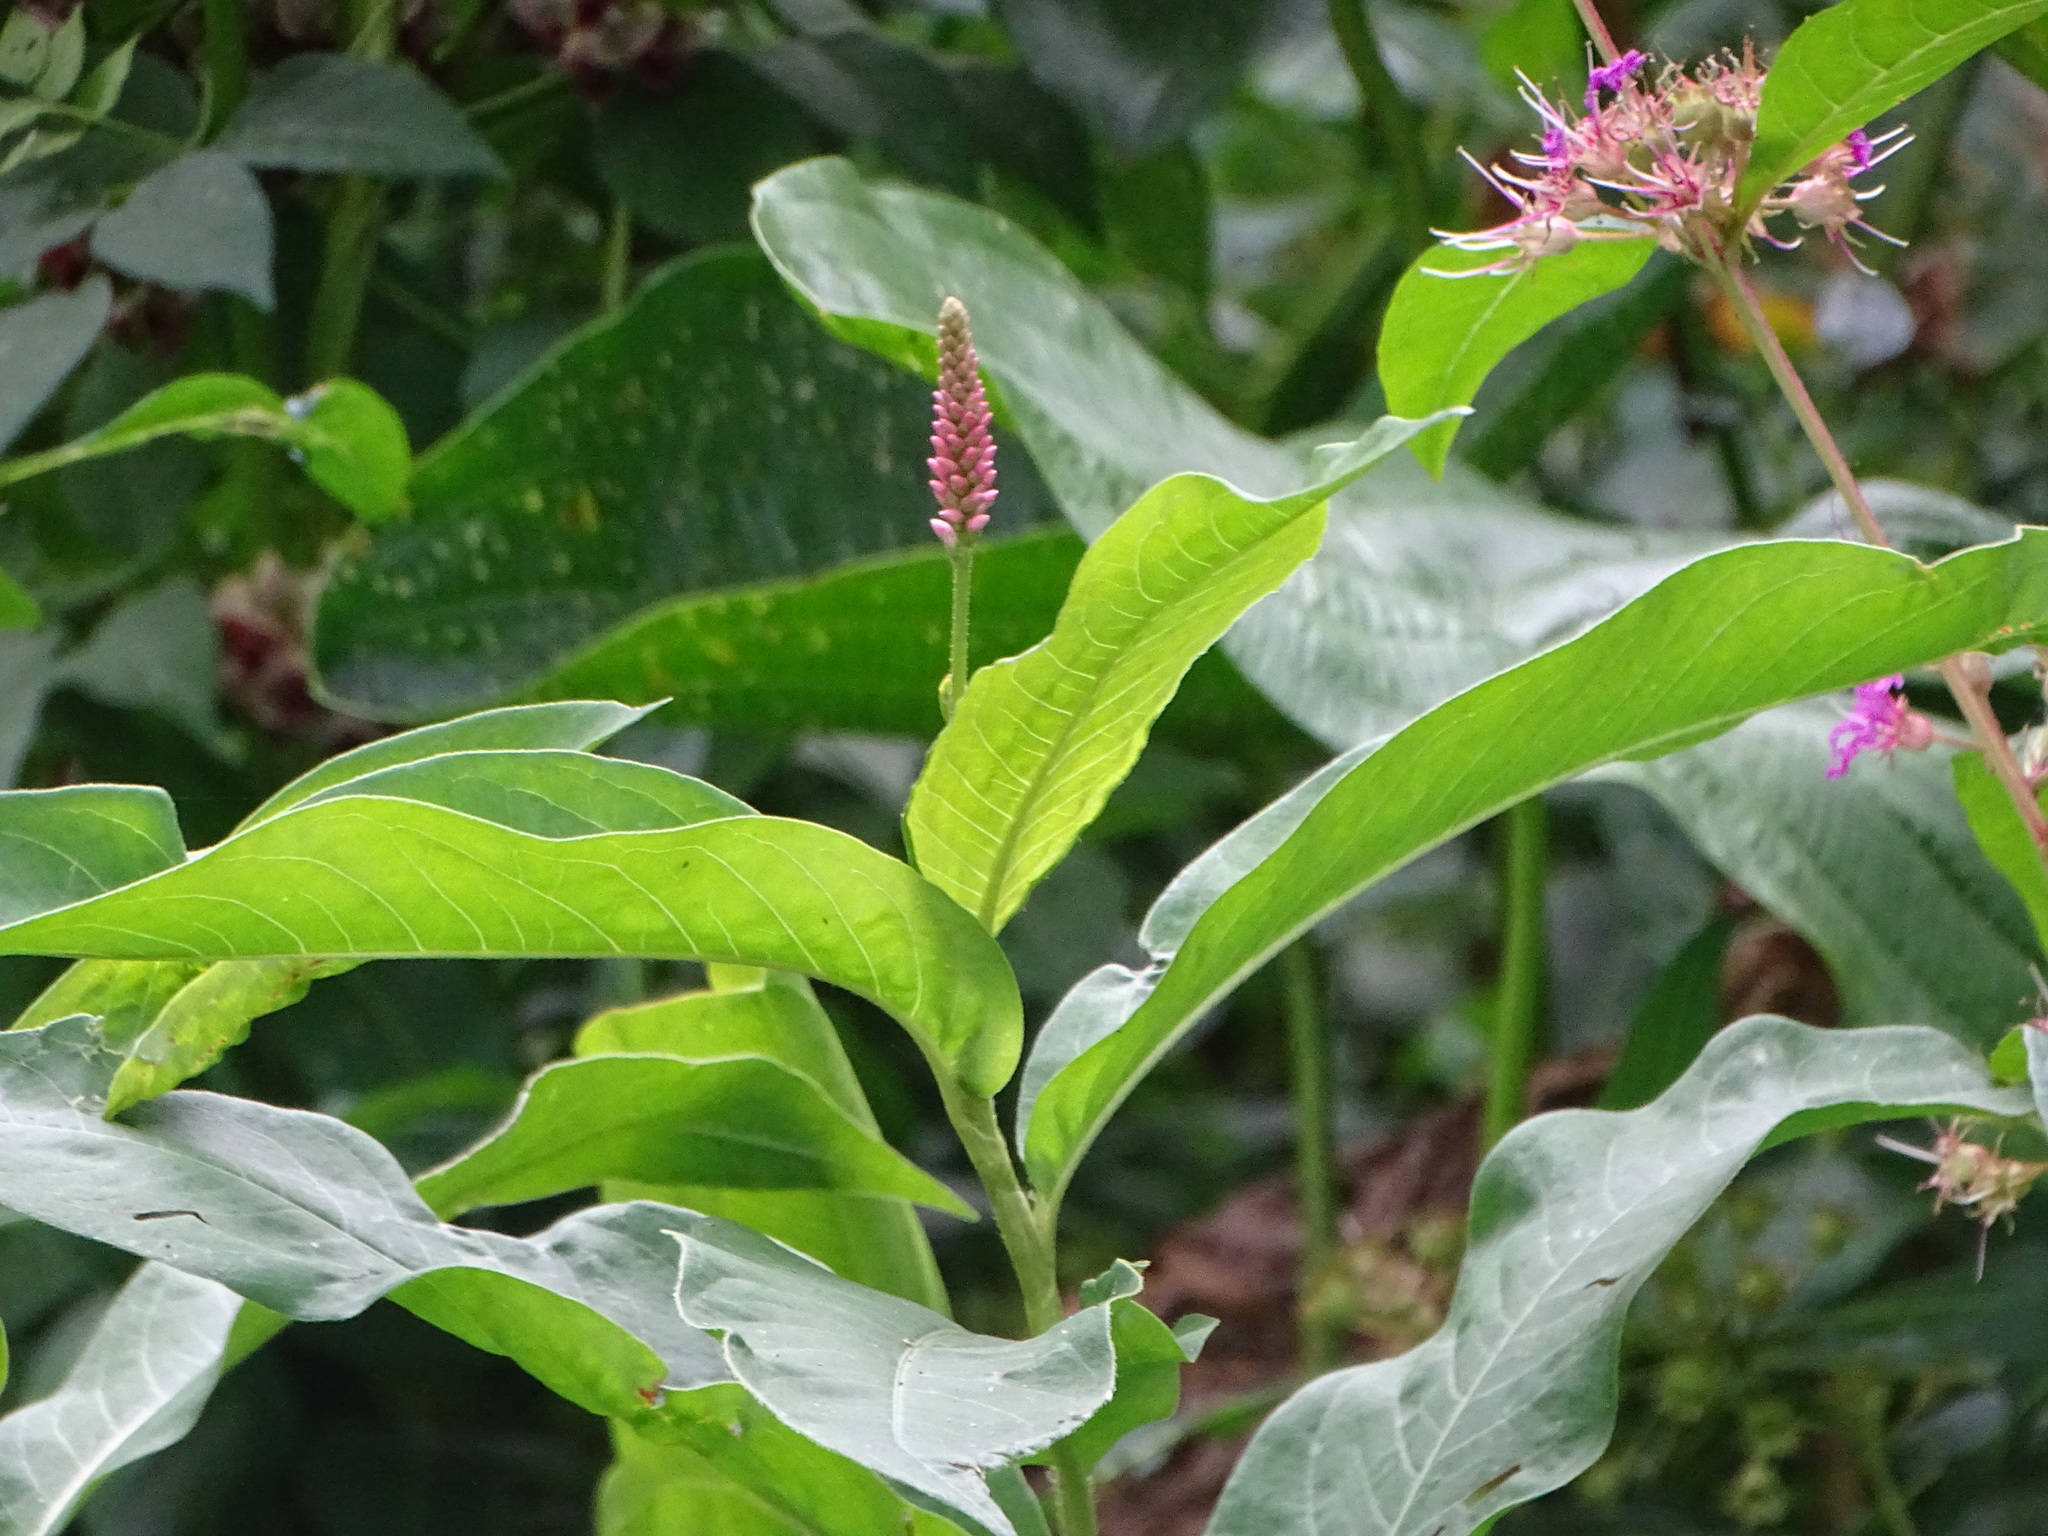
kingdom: Plantae
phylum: Tracheophyta
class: Magnoliopsida
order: Caryophyllales
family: Polygonaceae
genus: Persicaria
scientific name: Persicaria amphibia
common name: Amphibious bistort
